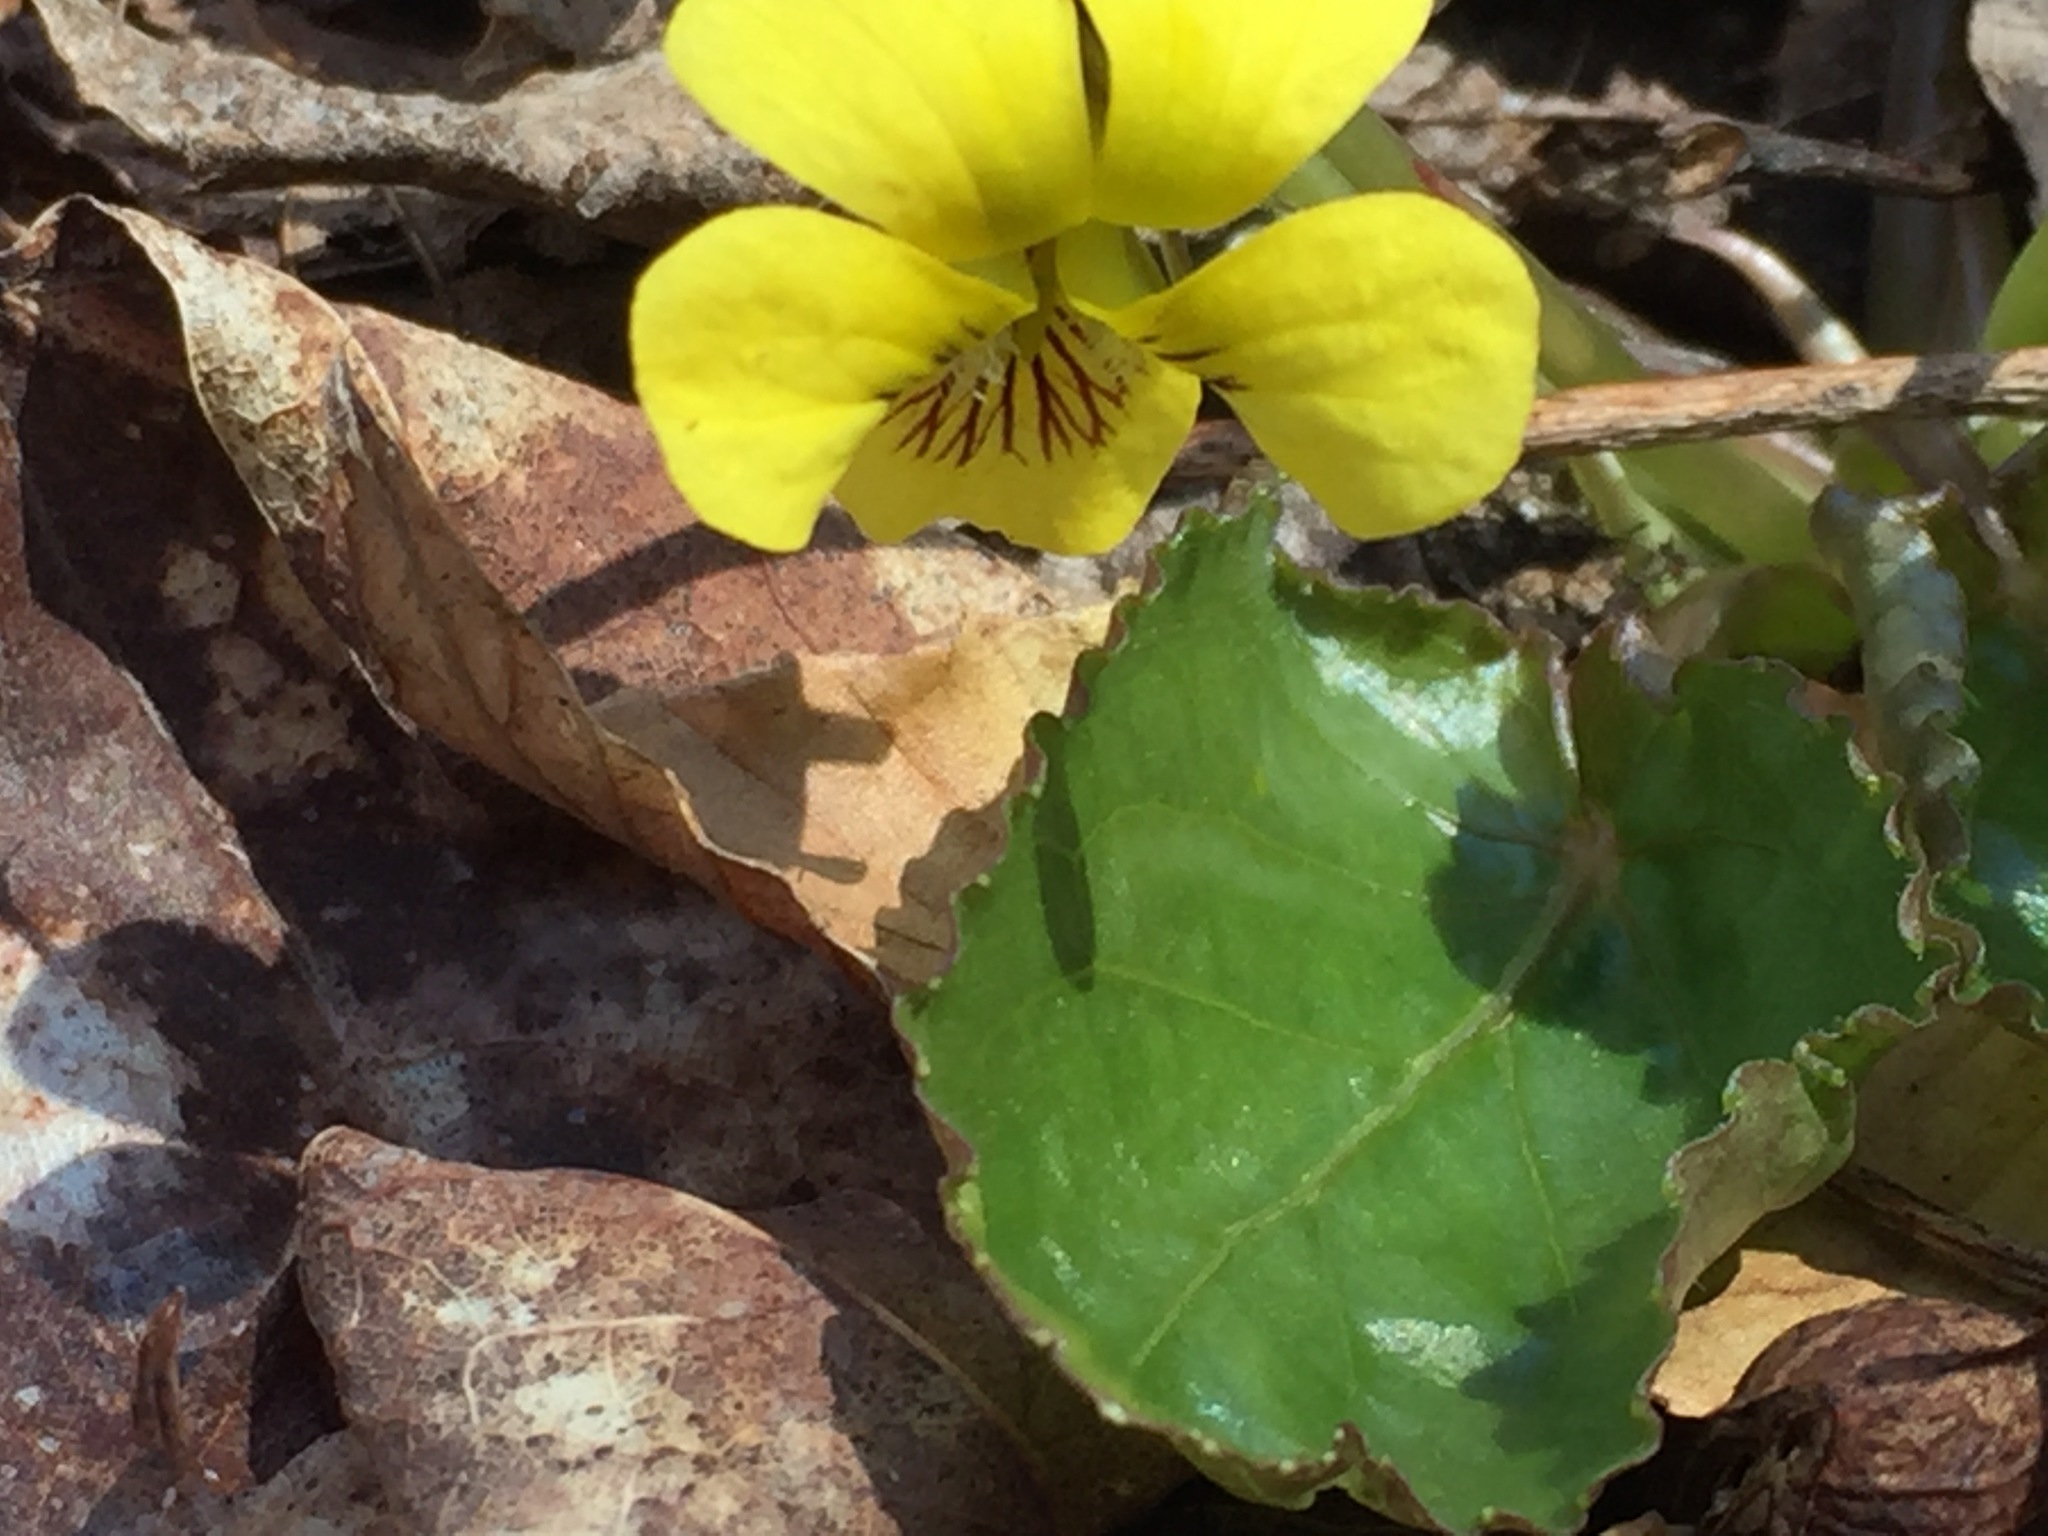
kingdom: Plantae
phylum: Tracheophyta
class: Magnoliopsida
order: Malpighiales
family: Violaceae
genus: Viola
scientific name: Viola rotundifolia
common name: Early yellow violet
